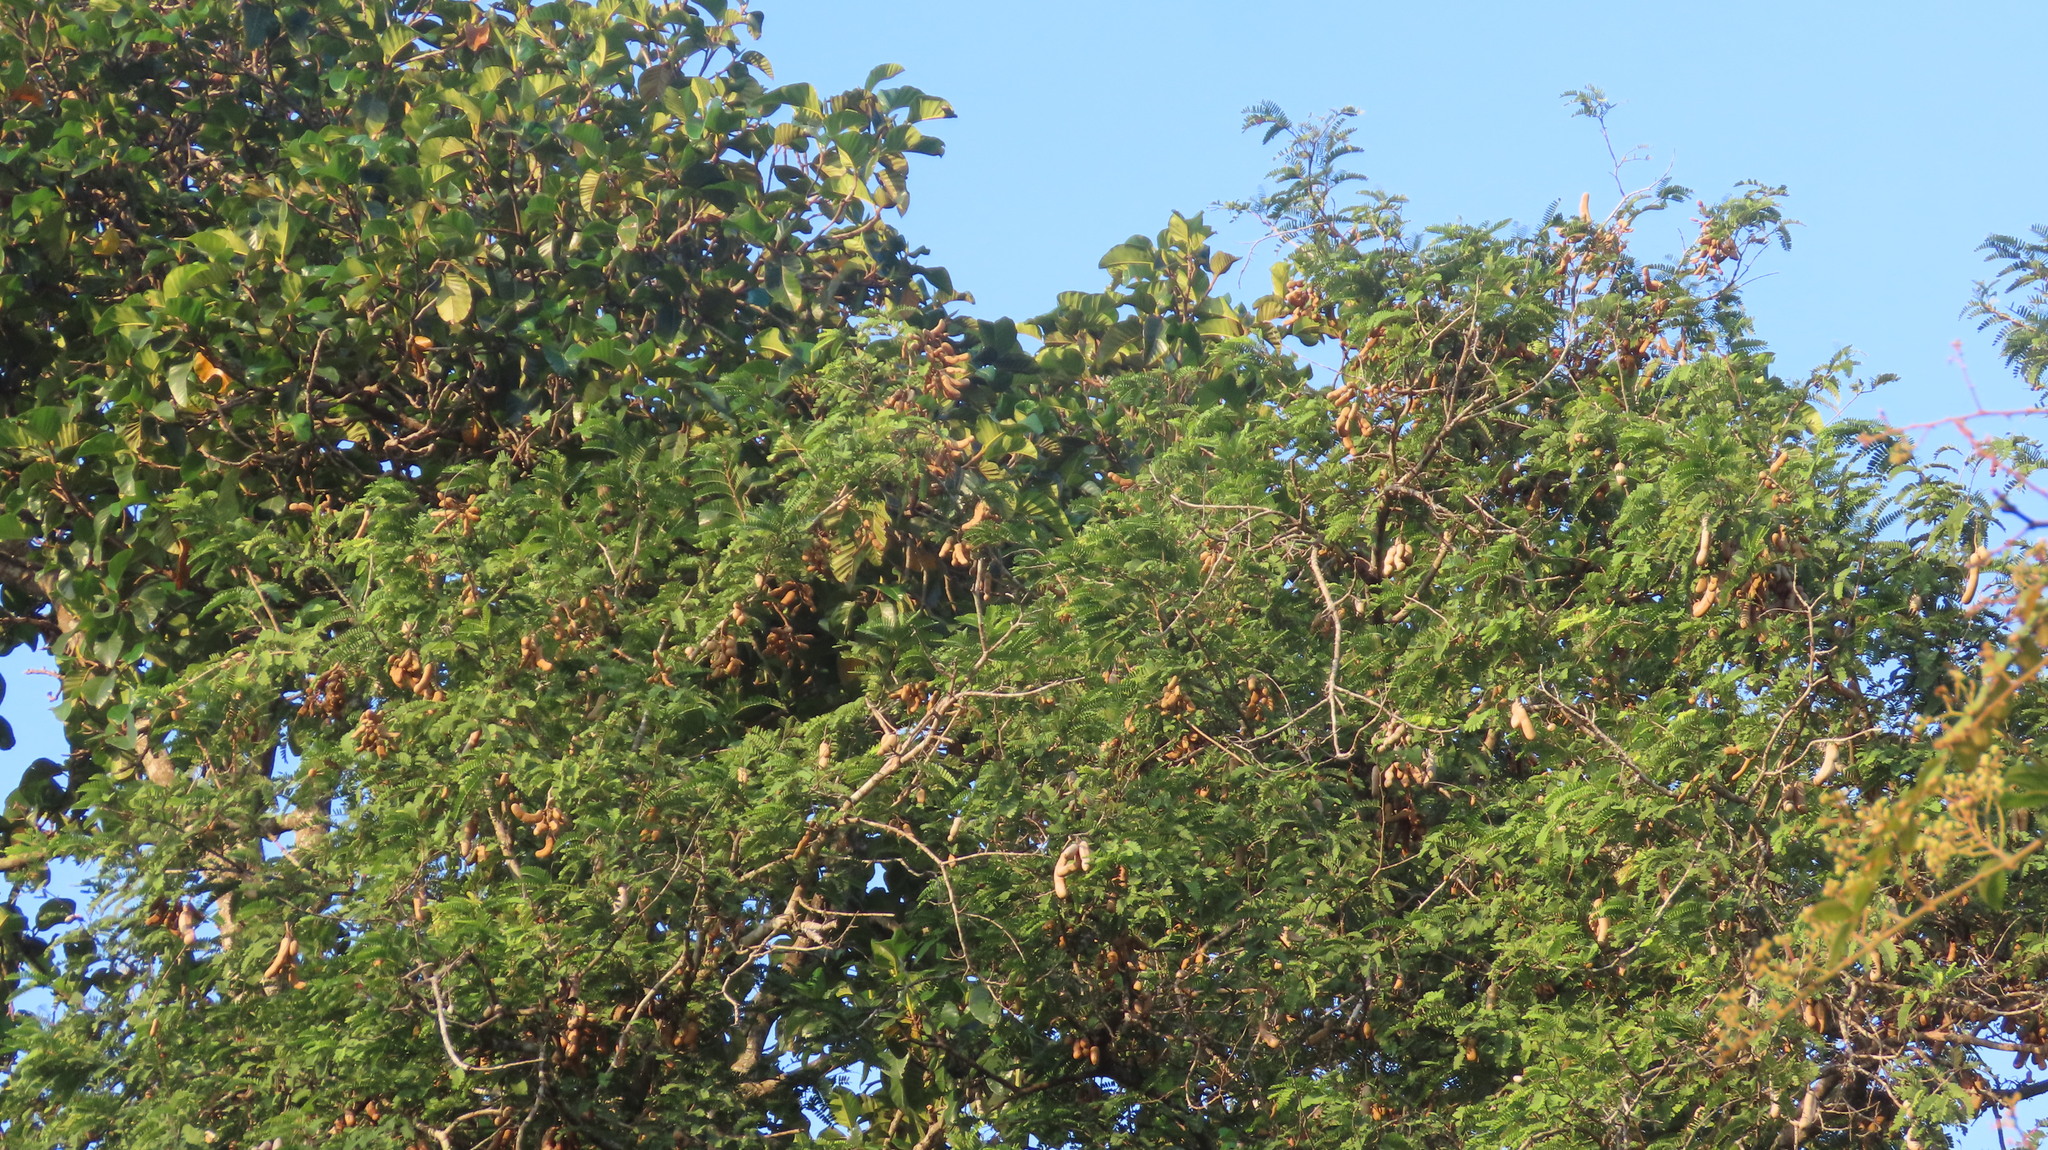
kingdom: Plantae
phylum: Tracheophyta
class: Magnoliopsida
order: Fabales
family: Fabaceae
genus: Tamarindus
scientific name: Tamarindus indica
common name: Tamarind
